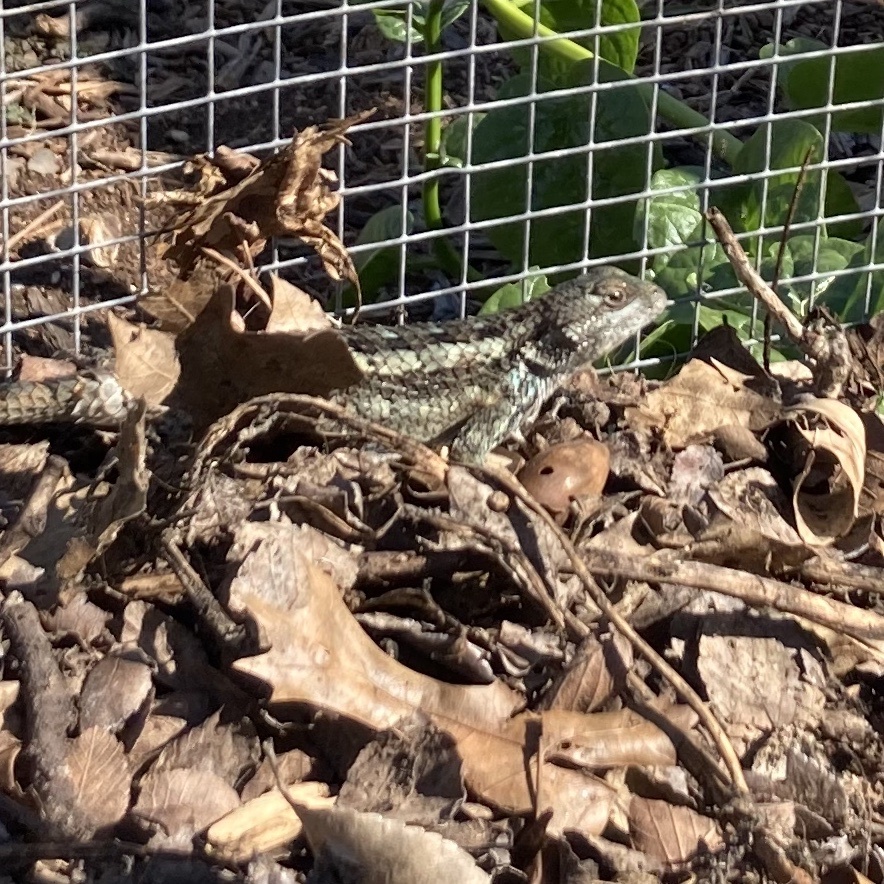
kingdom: Animalia
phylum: Chordata
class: Squamata
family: Phrynosomatidae
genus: Sceloporus
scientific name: Sceloporus olivaceus
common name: Texas spiny lizard
